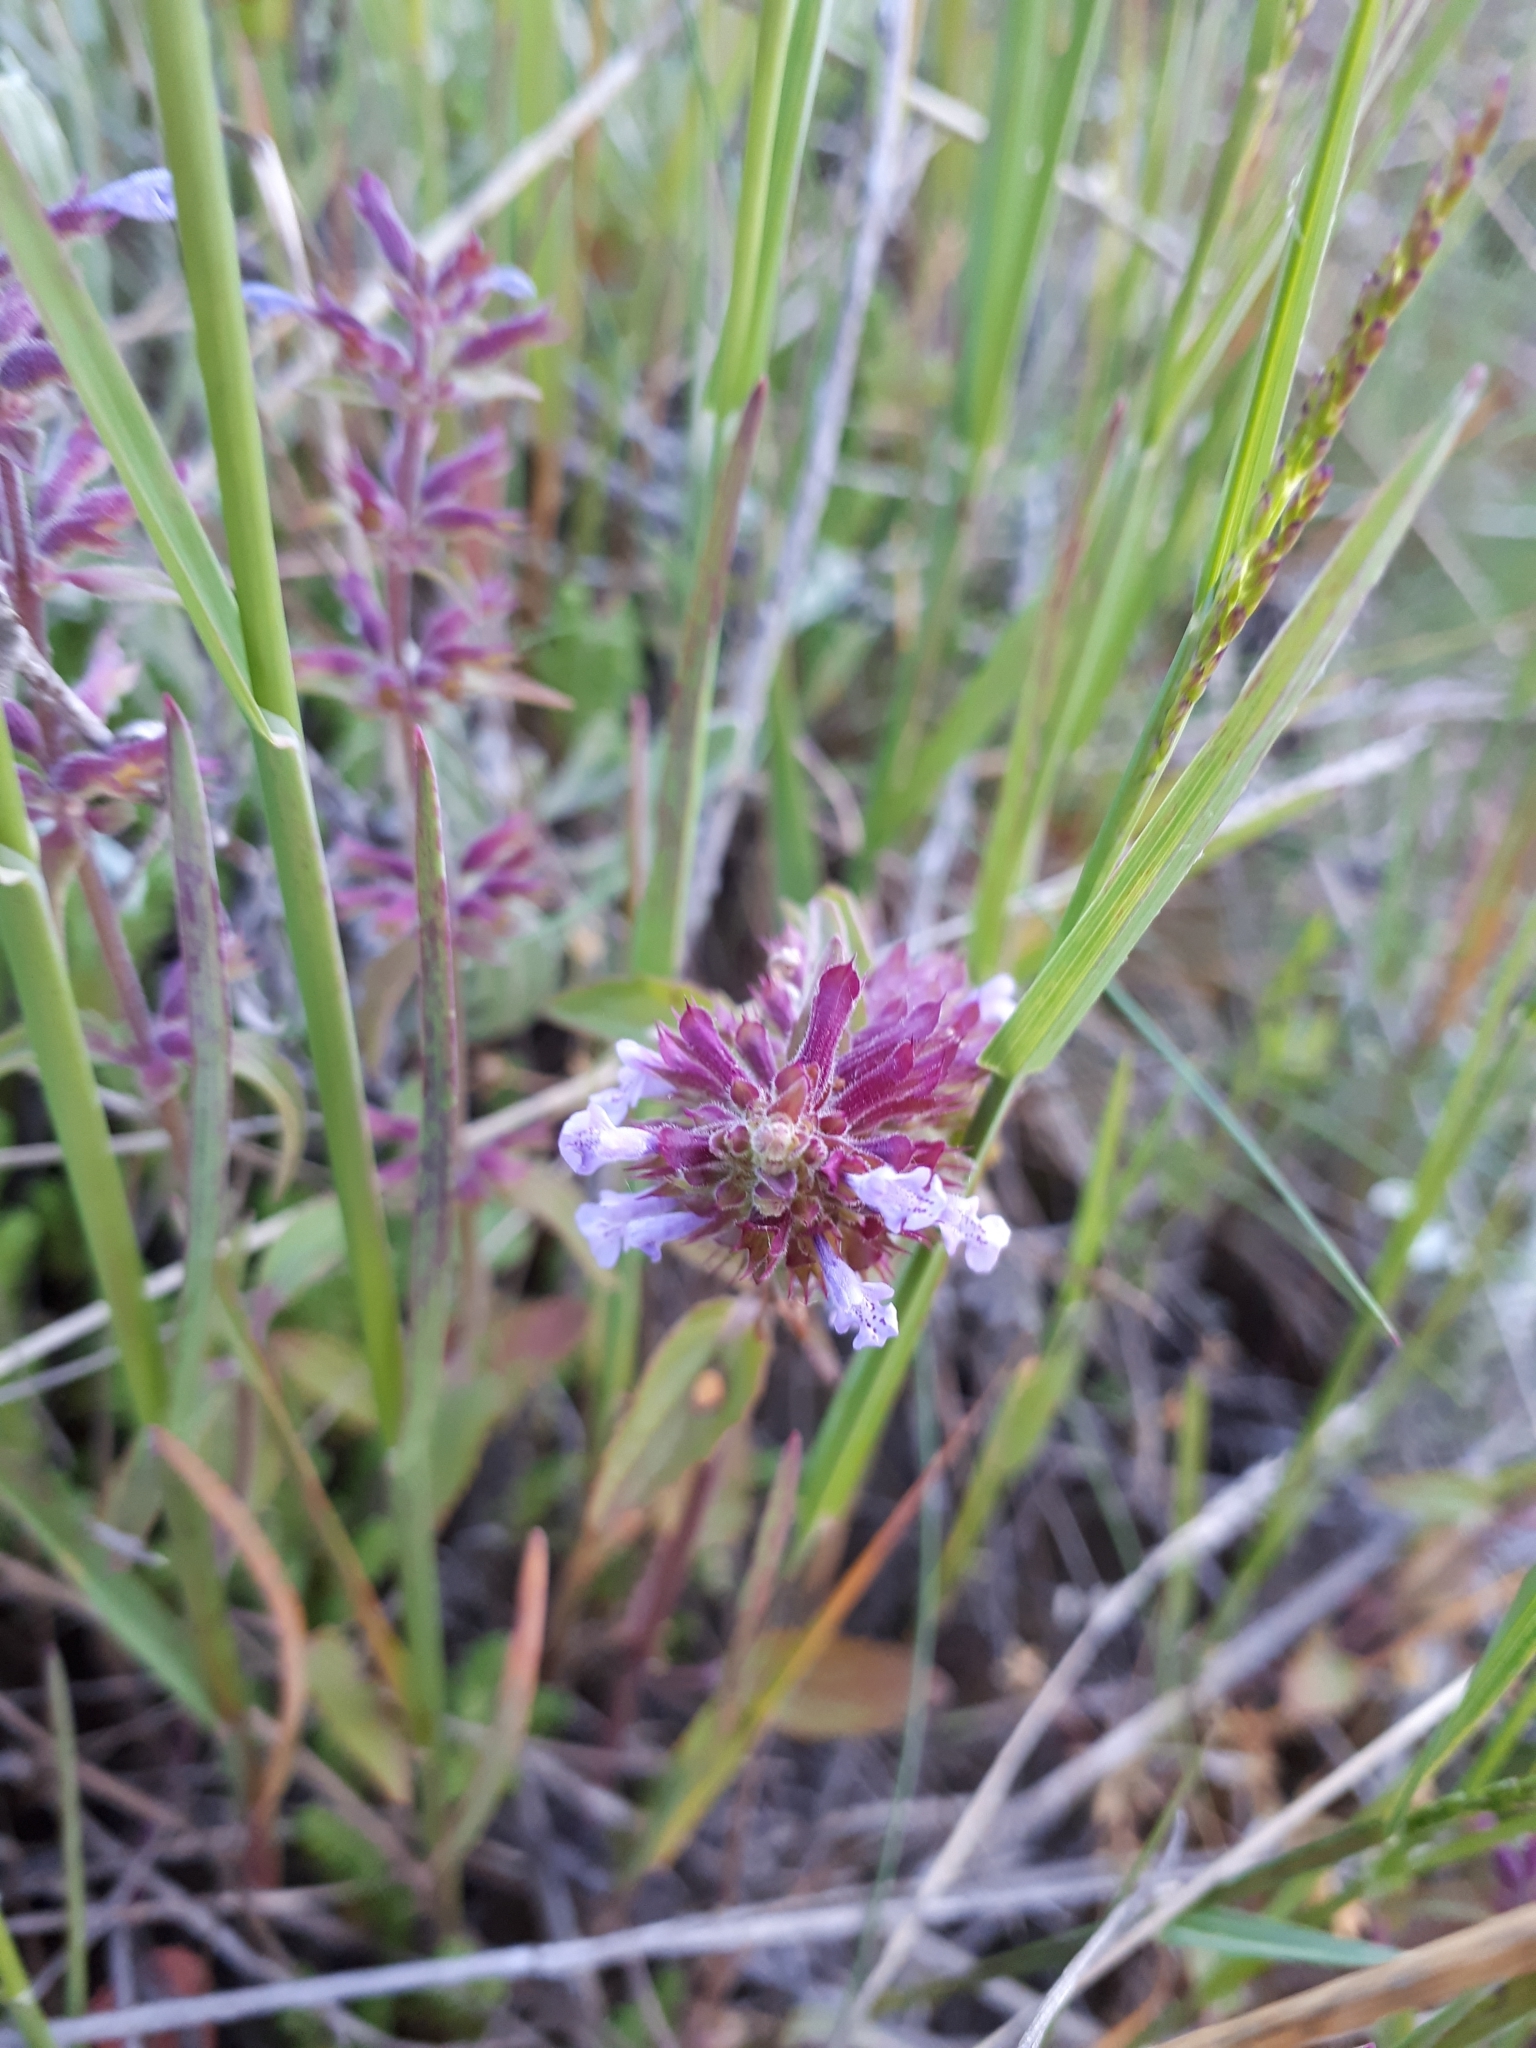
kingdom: Plantae
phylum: Tracheophyta
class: Magnoliopsida
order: Lamiales
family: Lamiaceae
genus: Dracocephalum
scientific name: Dracocephalum thymiflorum
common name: Thymeleaf dragonhead
